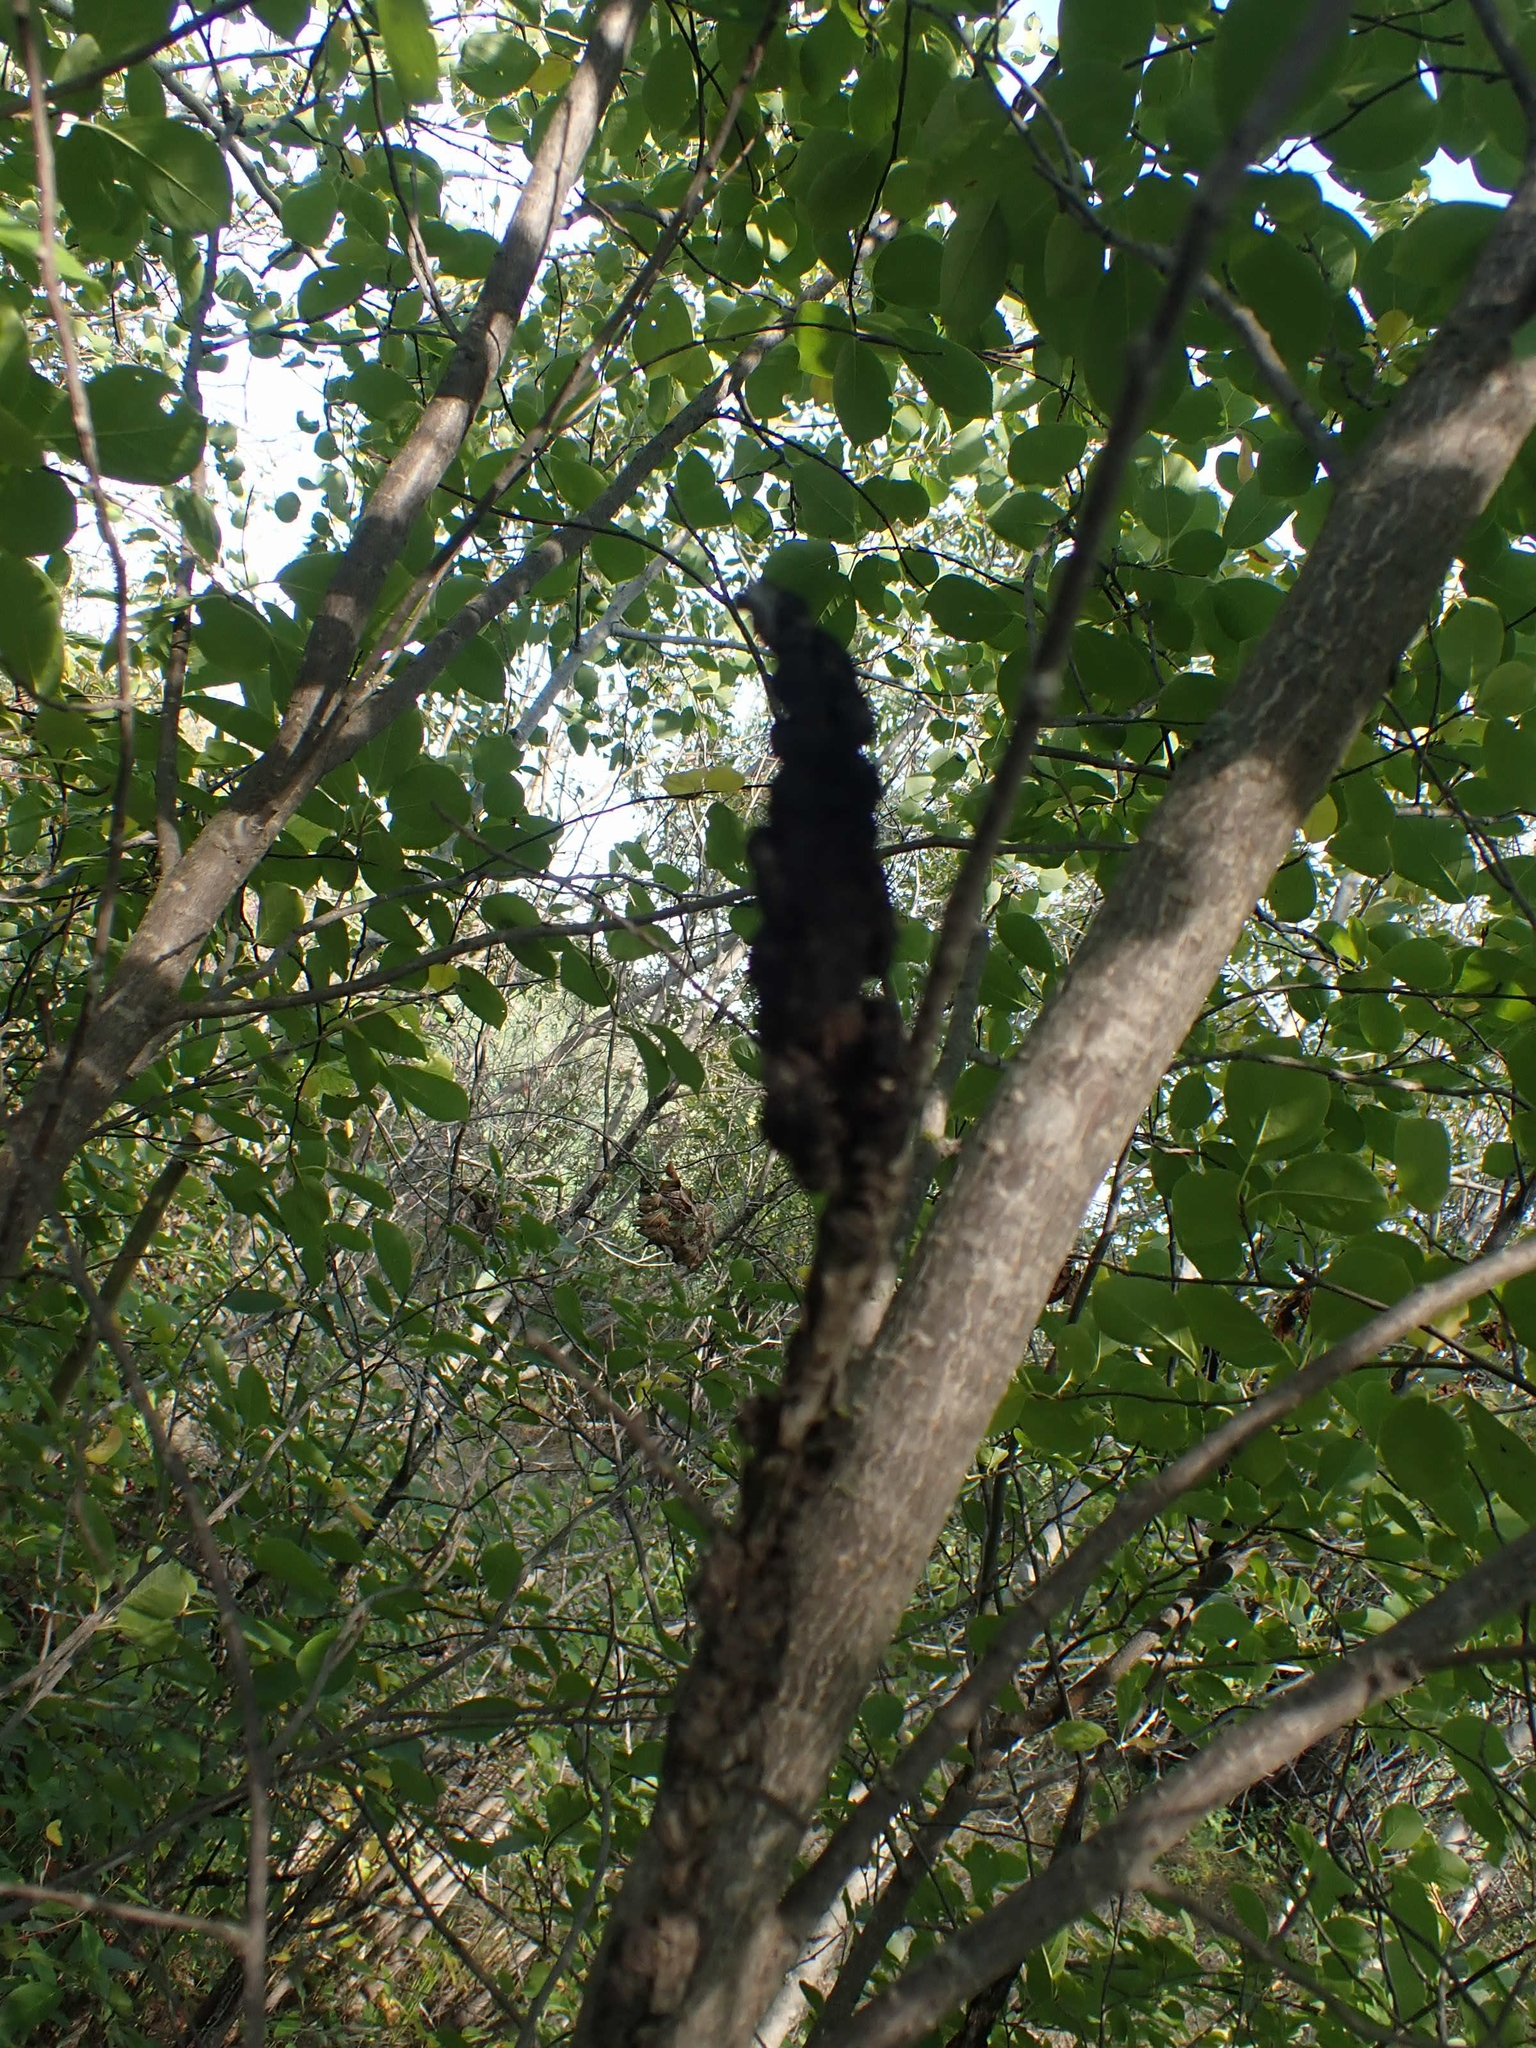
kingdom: Fungi
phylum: Ascomycota
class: Dothideomycetes
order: Venturiales
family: Venturiaceae
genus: Apiosporina
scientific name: Apiosporina morbosa
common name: Black knot
